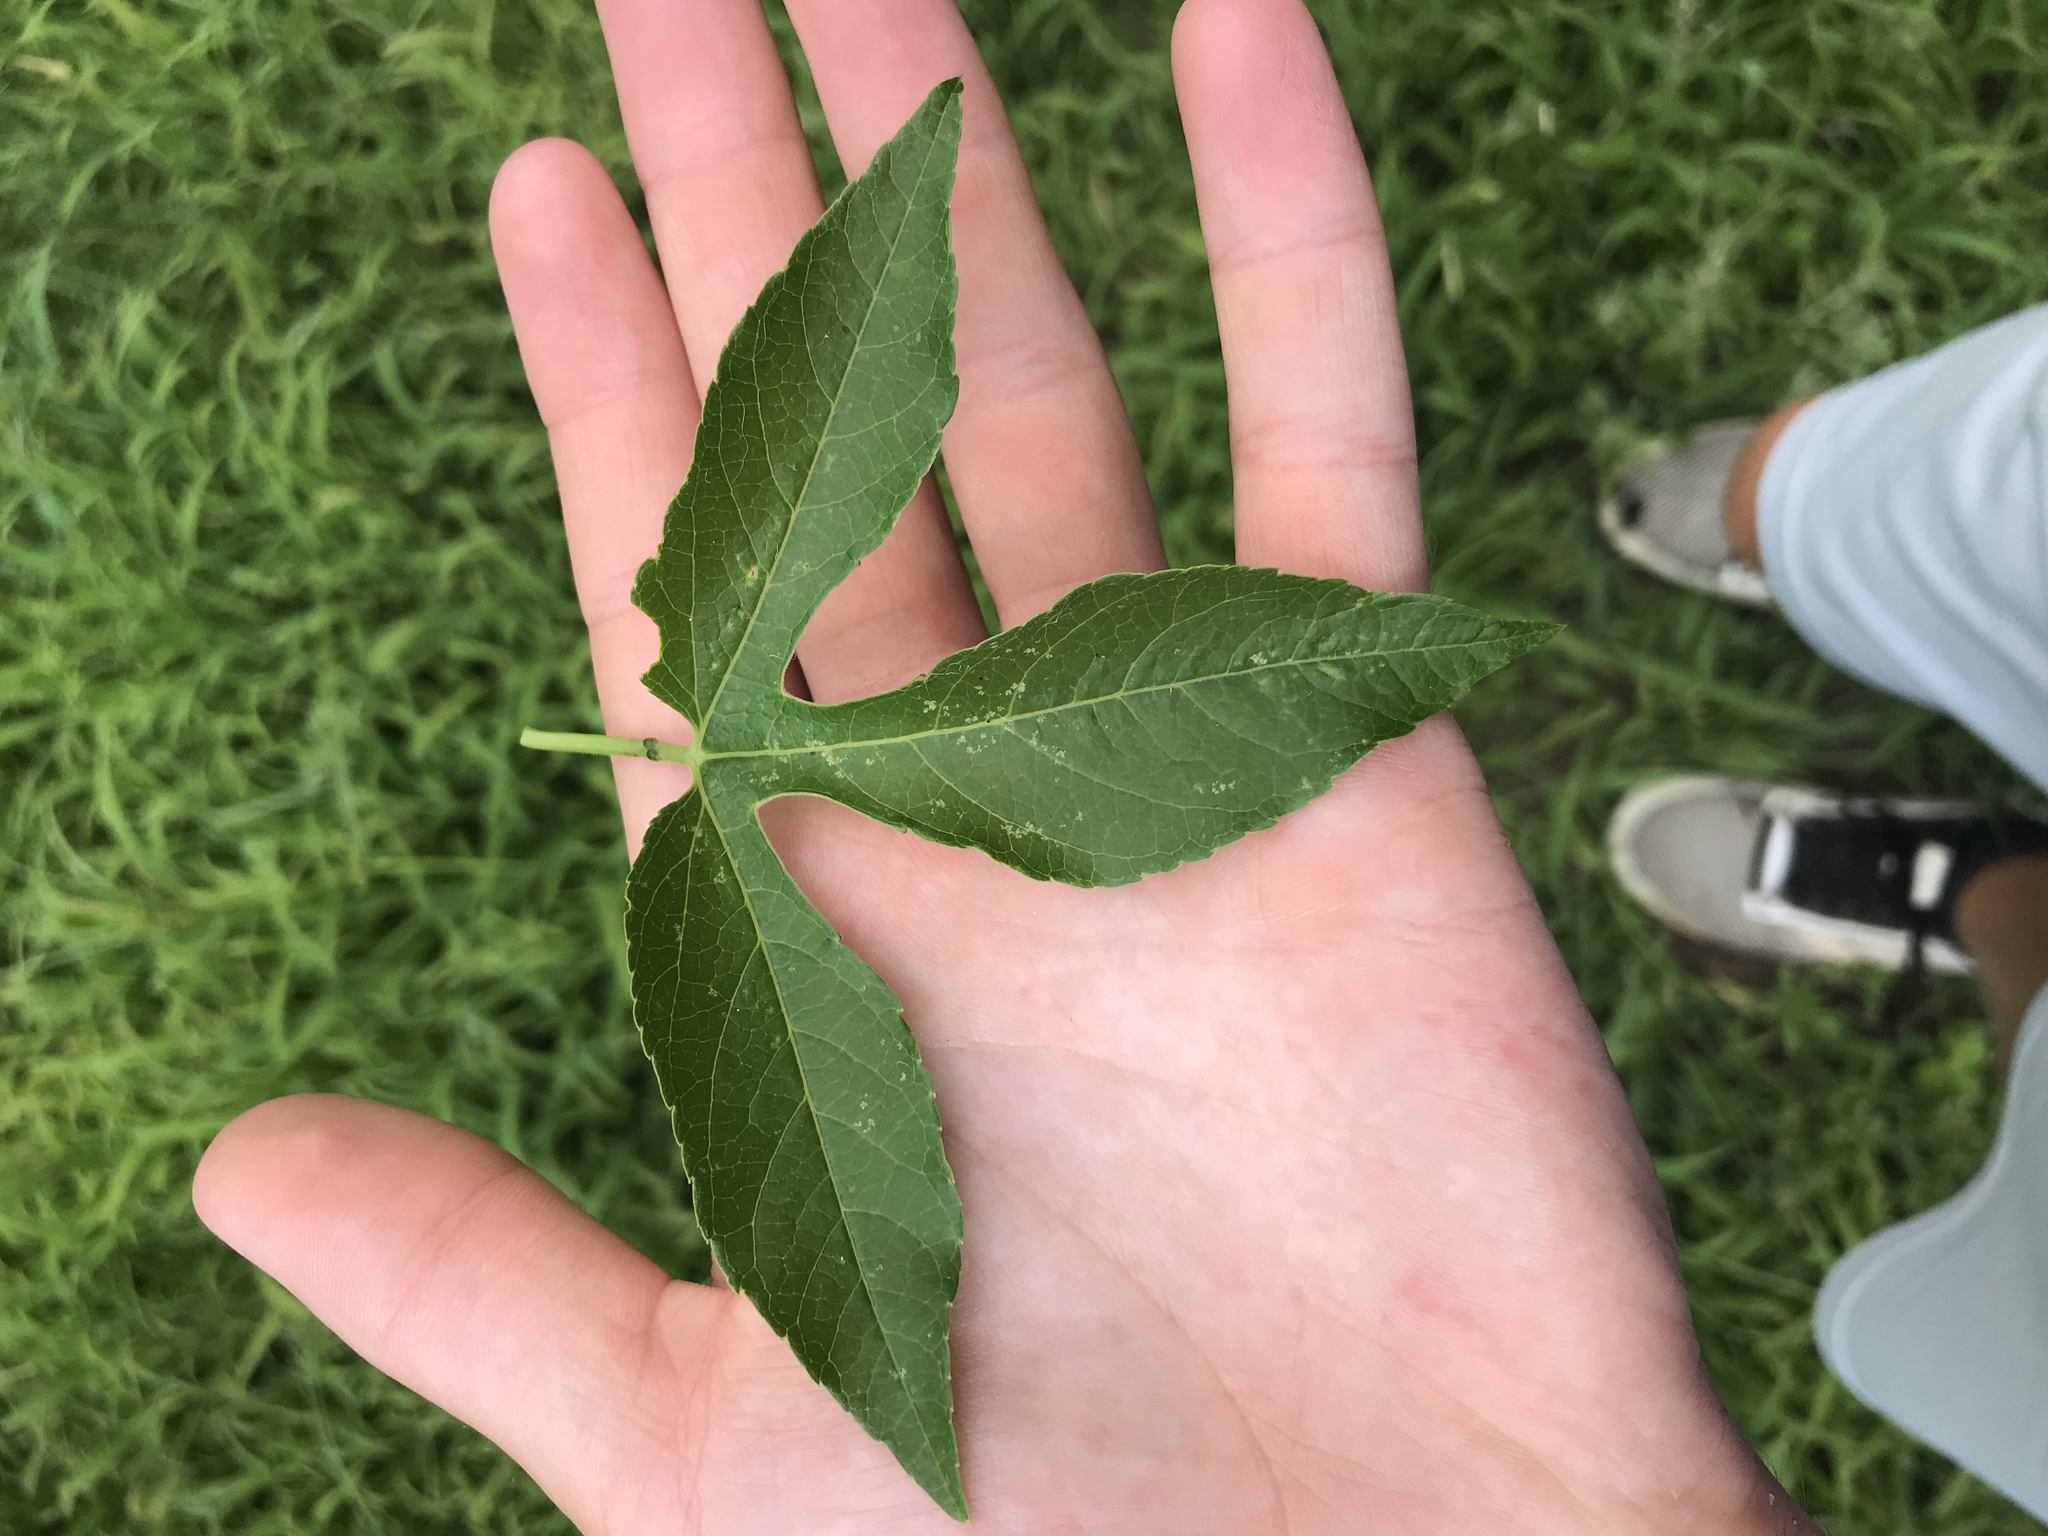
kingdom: Plantae
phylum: Tracheophyta
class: Magnoliopsida
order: Malpighiales
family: Passifloraceae
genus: Passiflora
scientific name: Passiflora incarnata
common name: Apricot-vine
